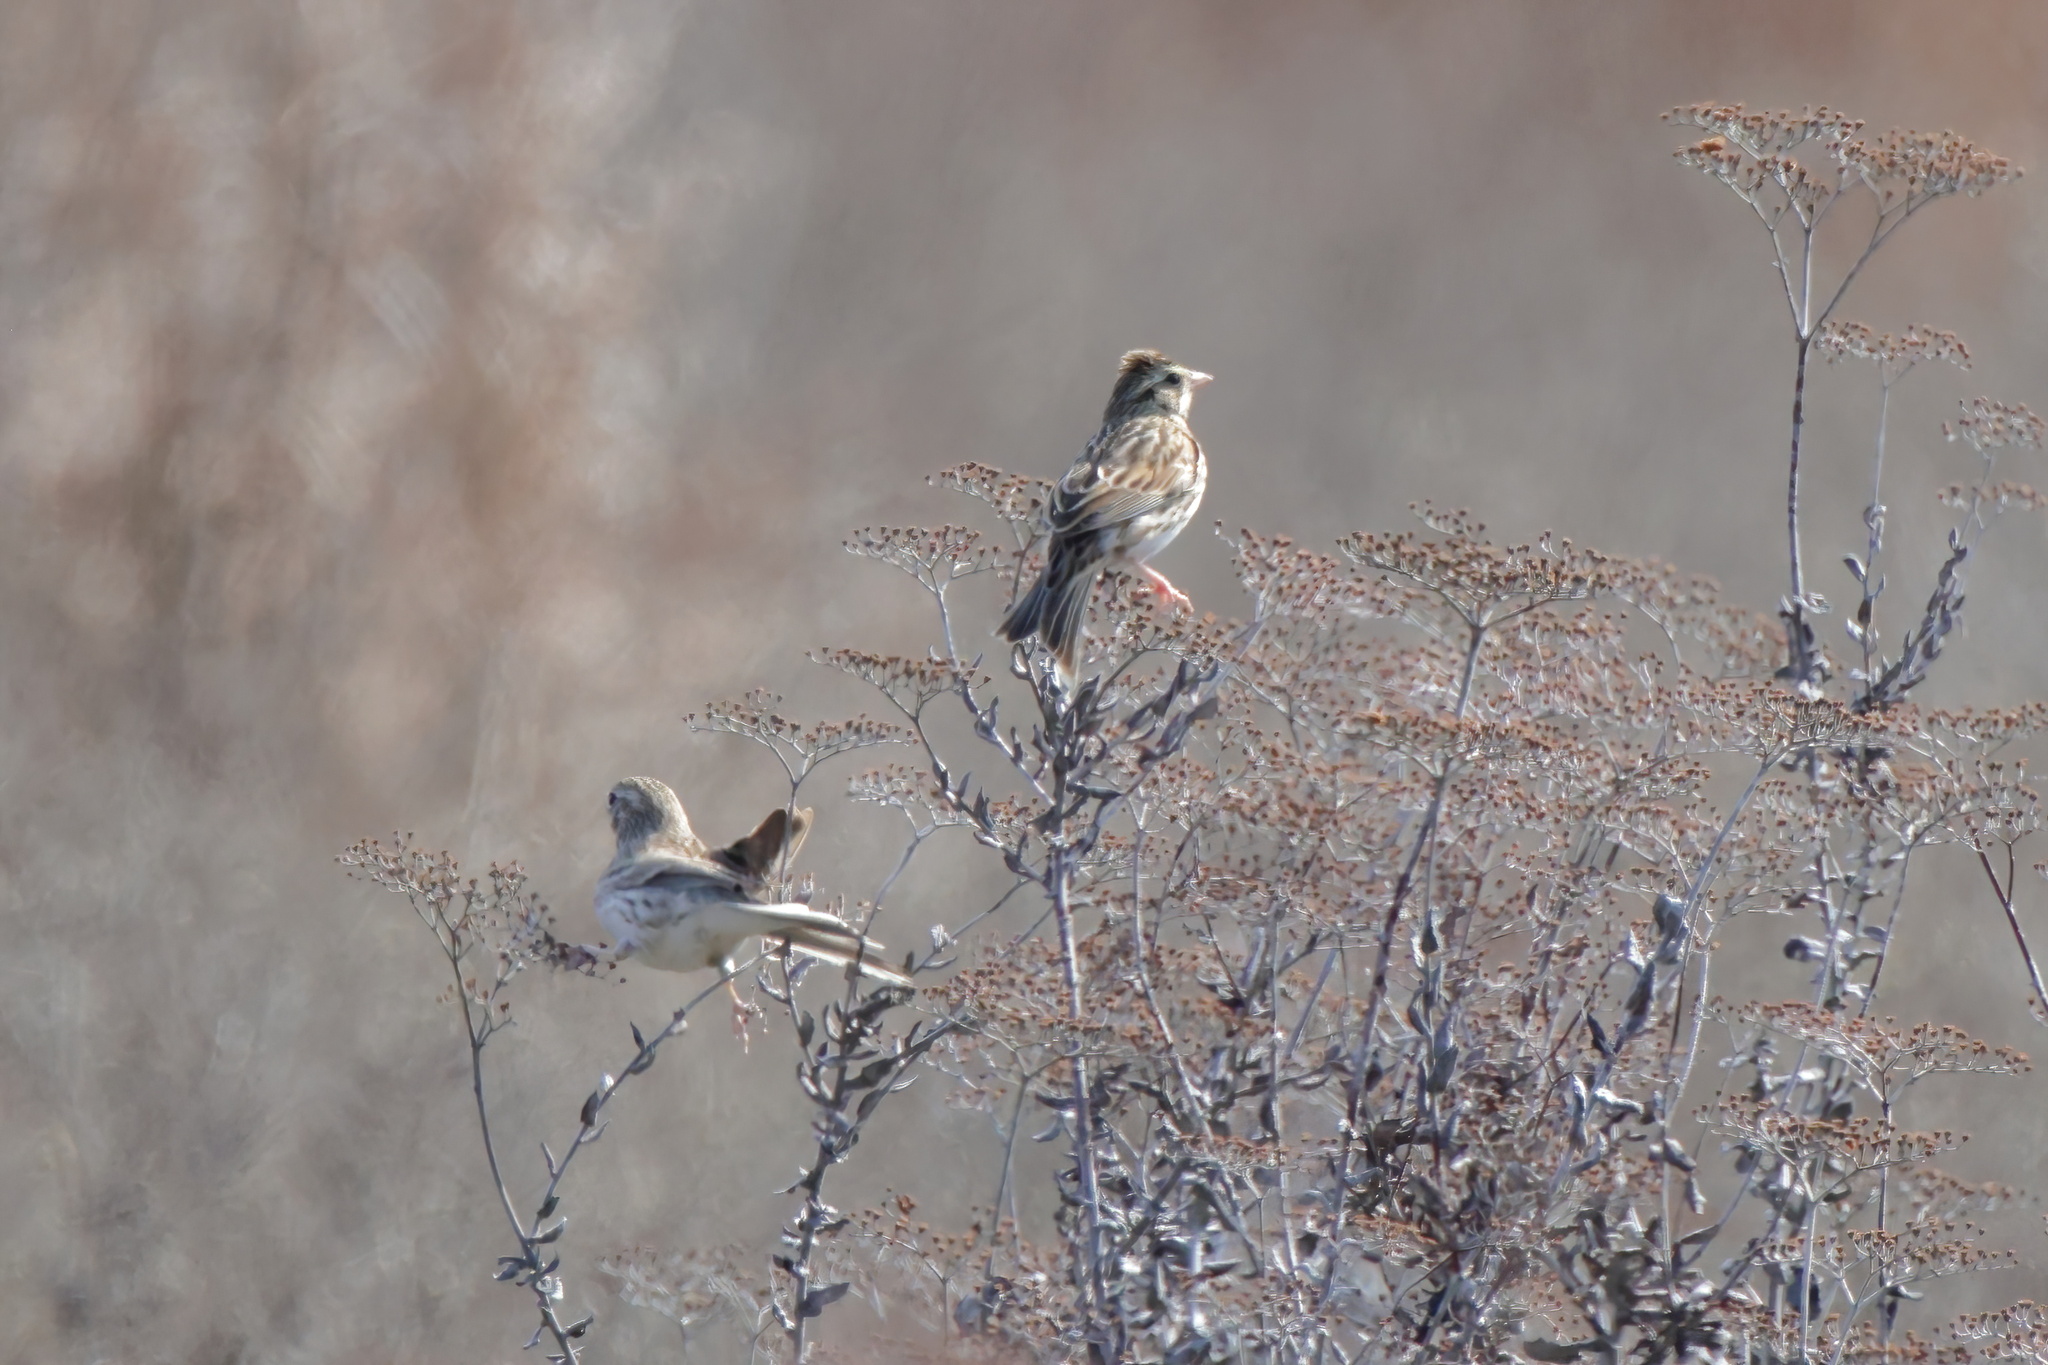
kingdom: Animalia
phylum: Chordata
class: Aves
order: Passeriformes
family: Passerellidae
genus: Passerculus
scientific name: Passerculus sandwichensis
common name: Savannah sparrow
